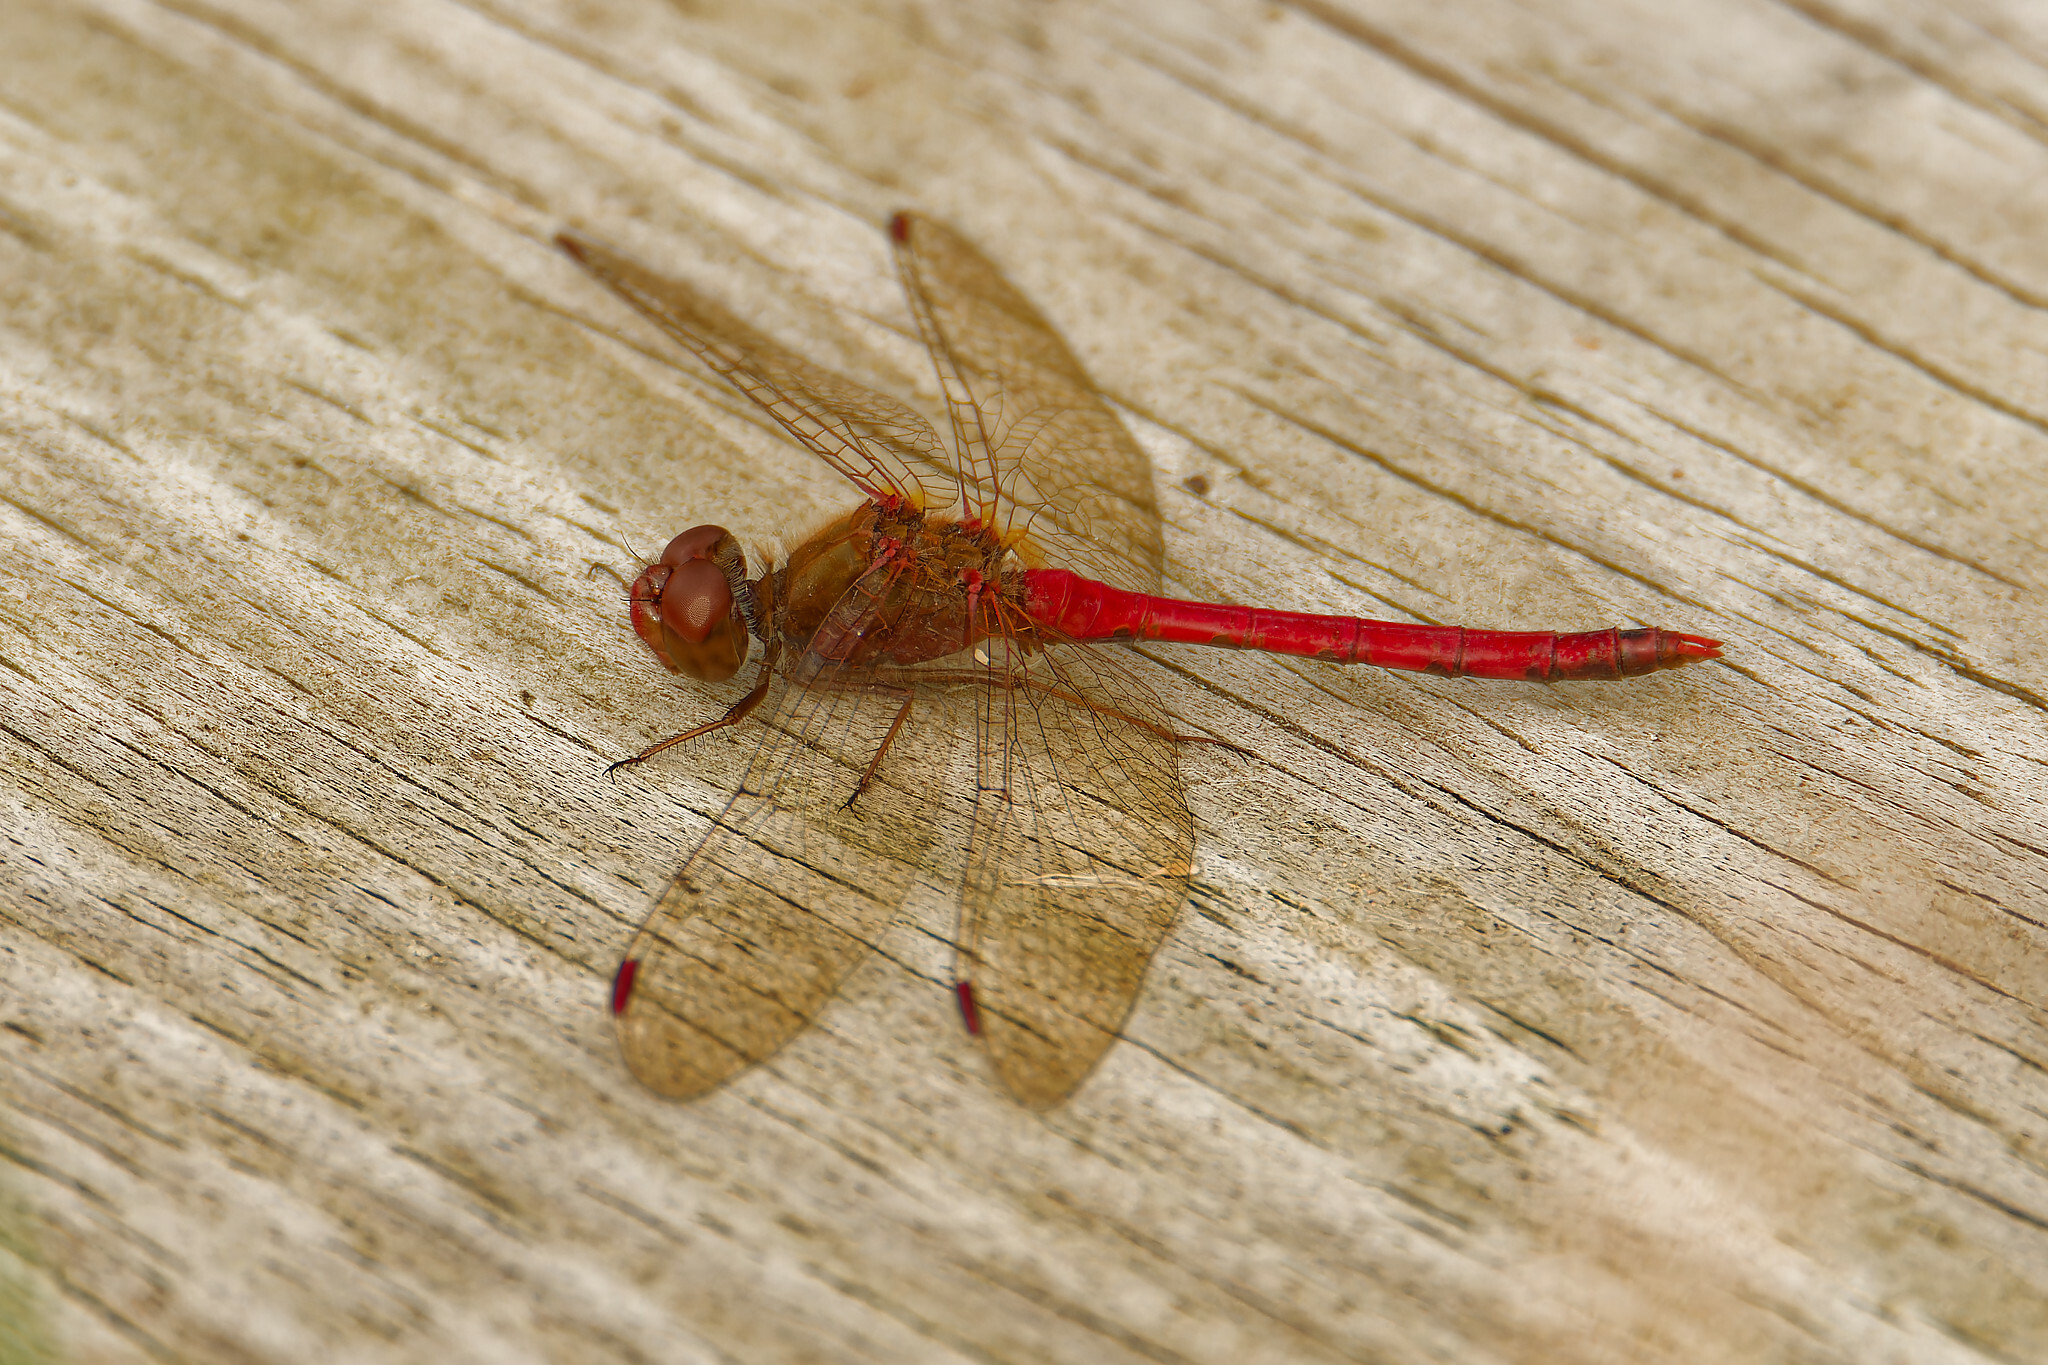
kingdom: Animalia
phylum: Arthropoda
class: Insecta
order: Odonata
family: Libellulidae
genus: Sympetrum
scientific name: Sympetrum vicinum
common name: Autumn meadowhawk
